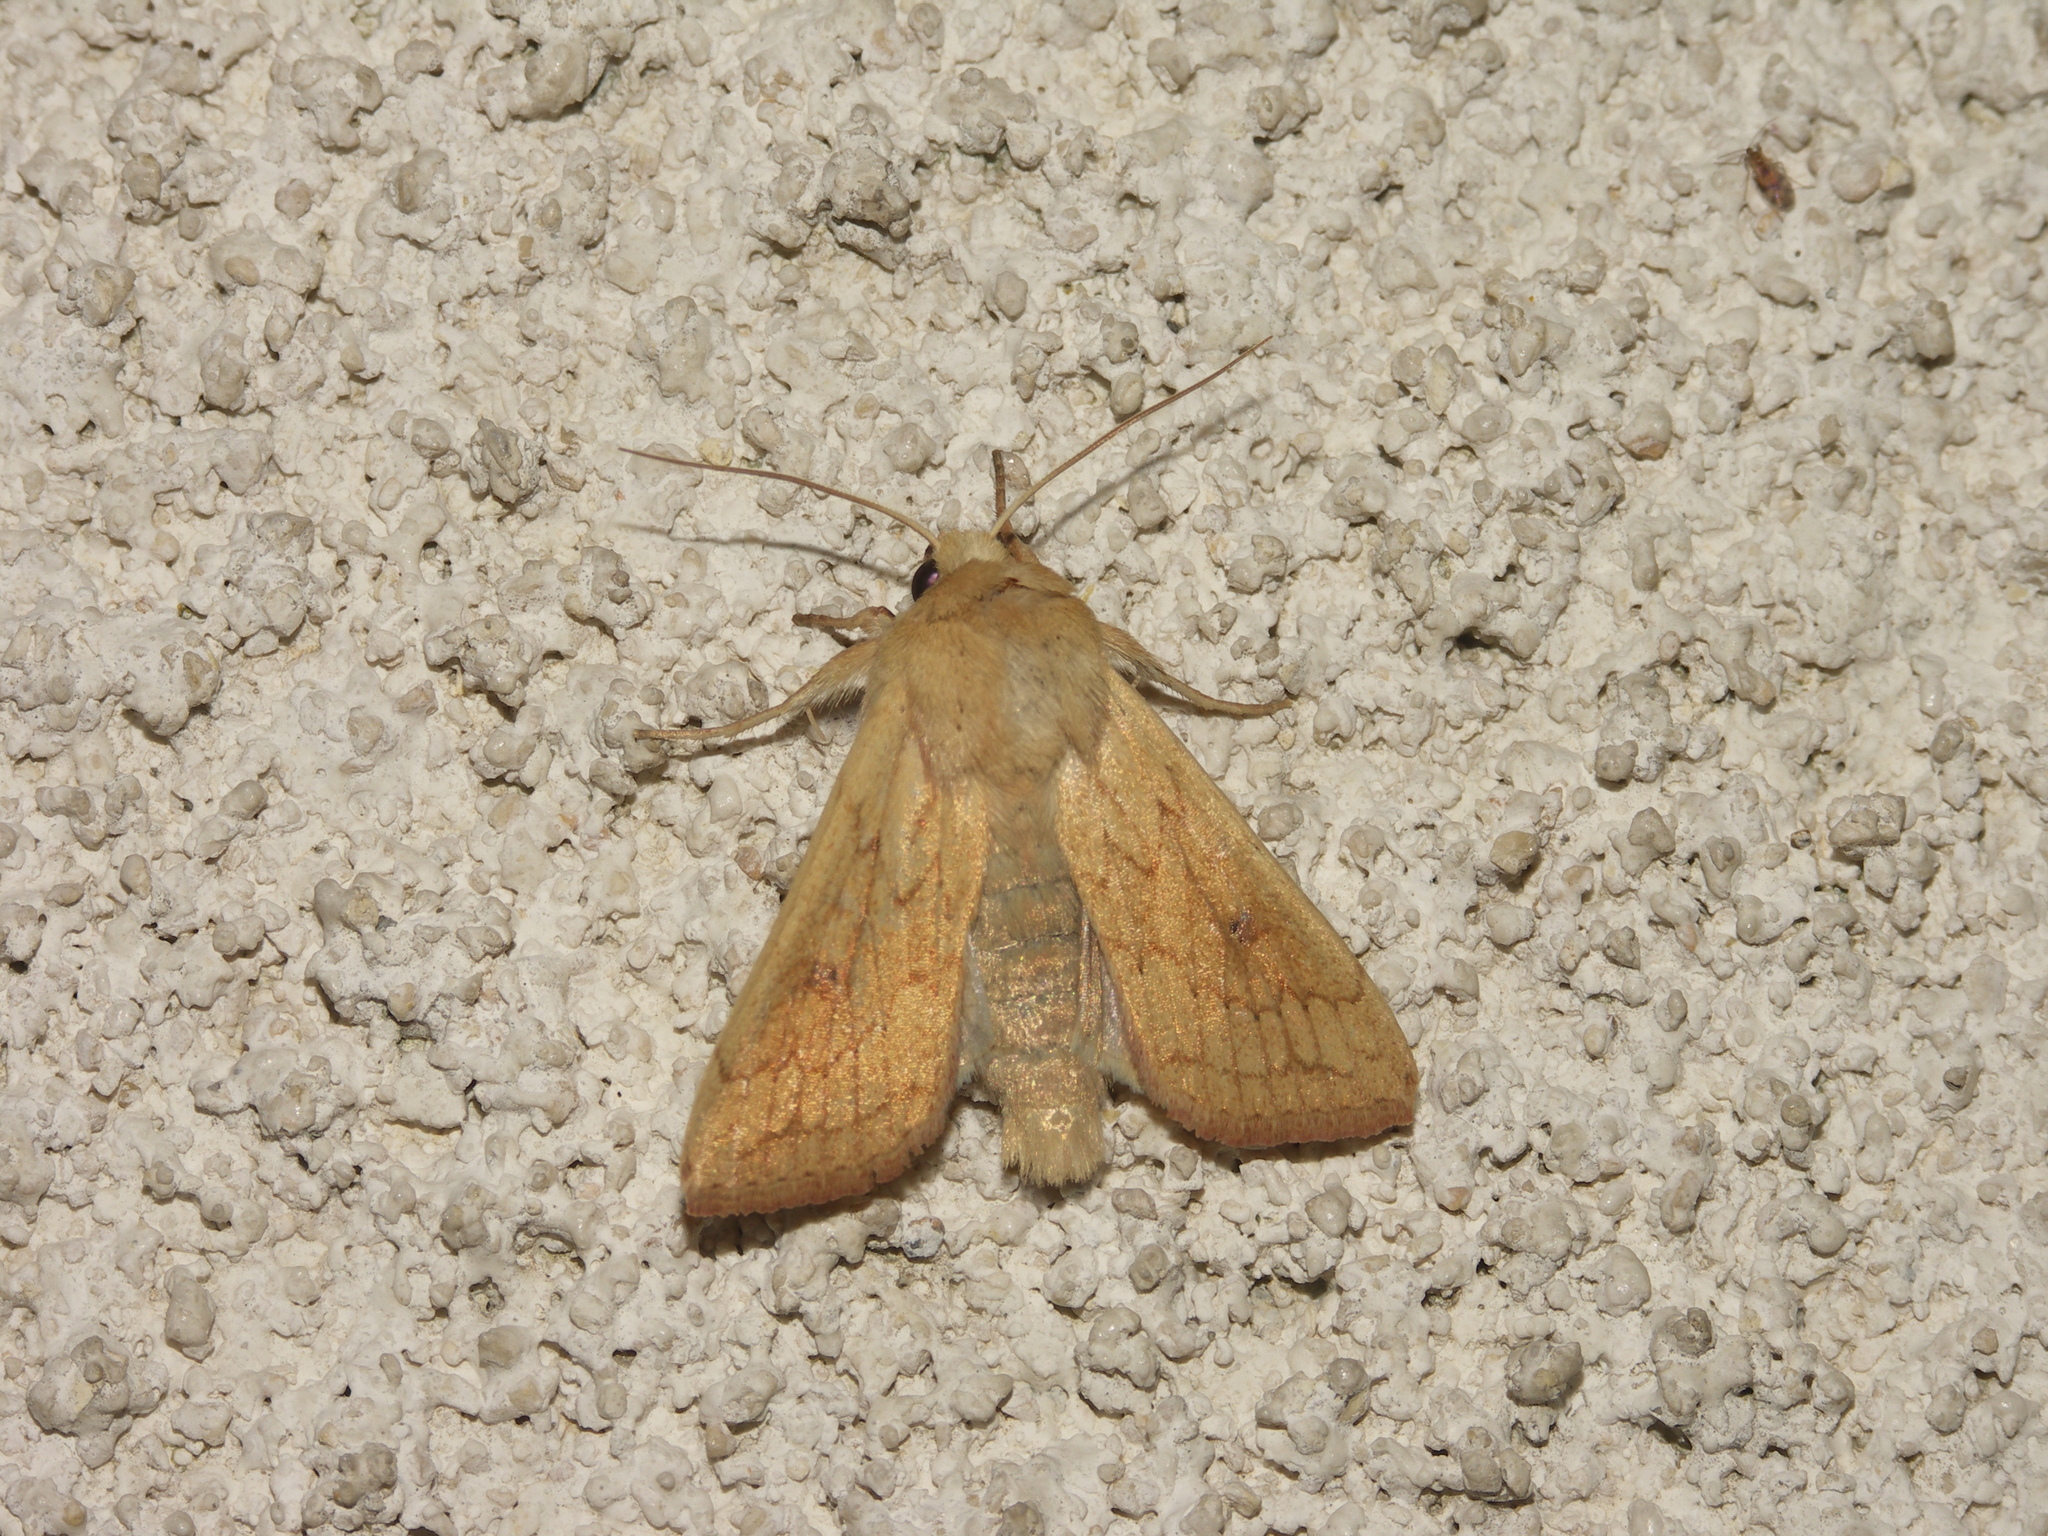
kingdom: Animalia
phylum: Arthropoda
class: Insecta
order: Lepidoptera
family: Noctuidae
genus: Mythimna
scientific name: Mythimna vitellina
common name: Delicate
